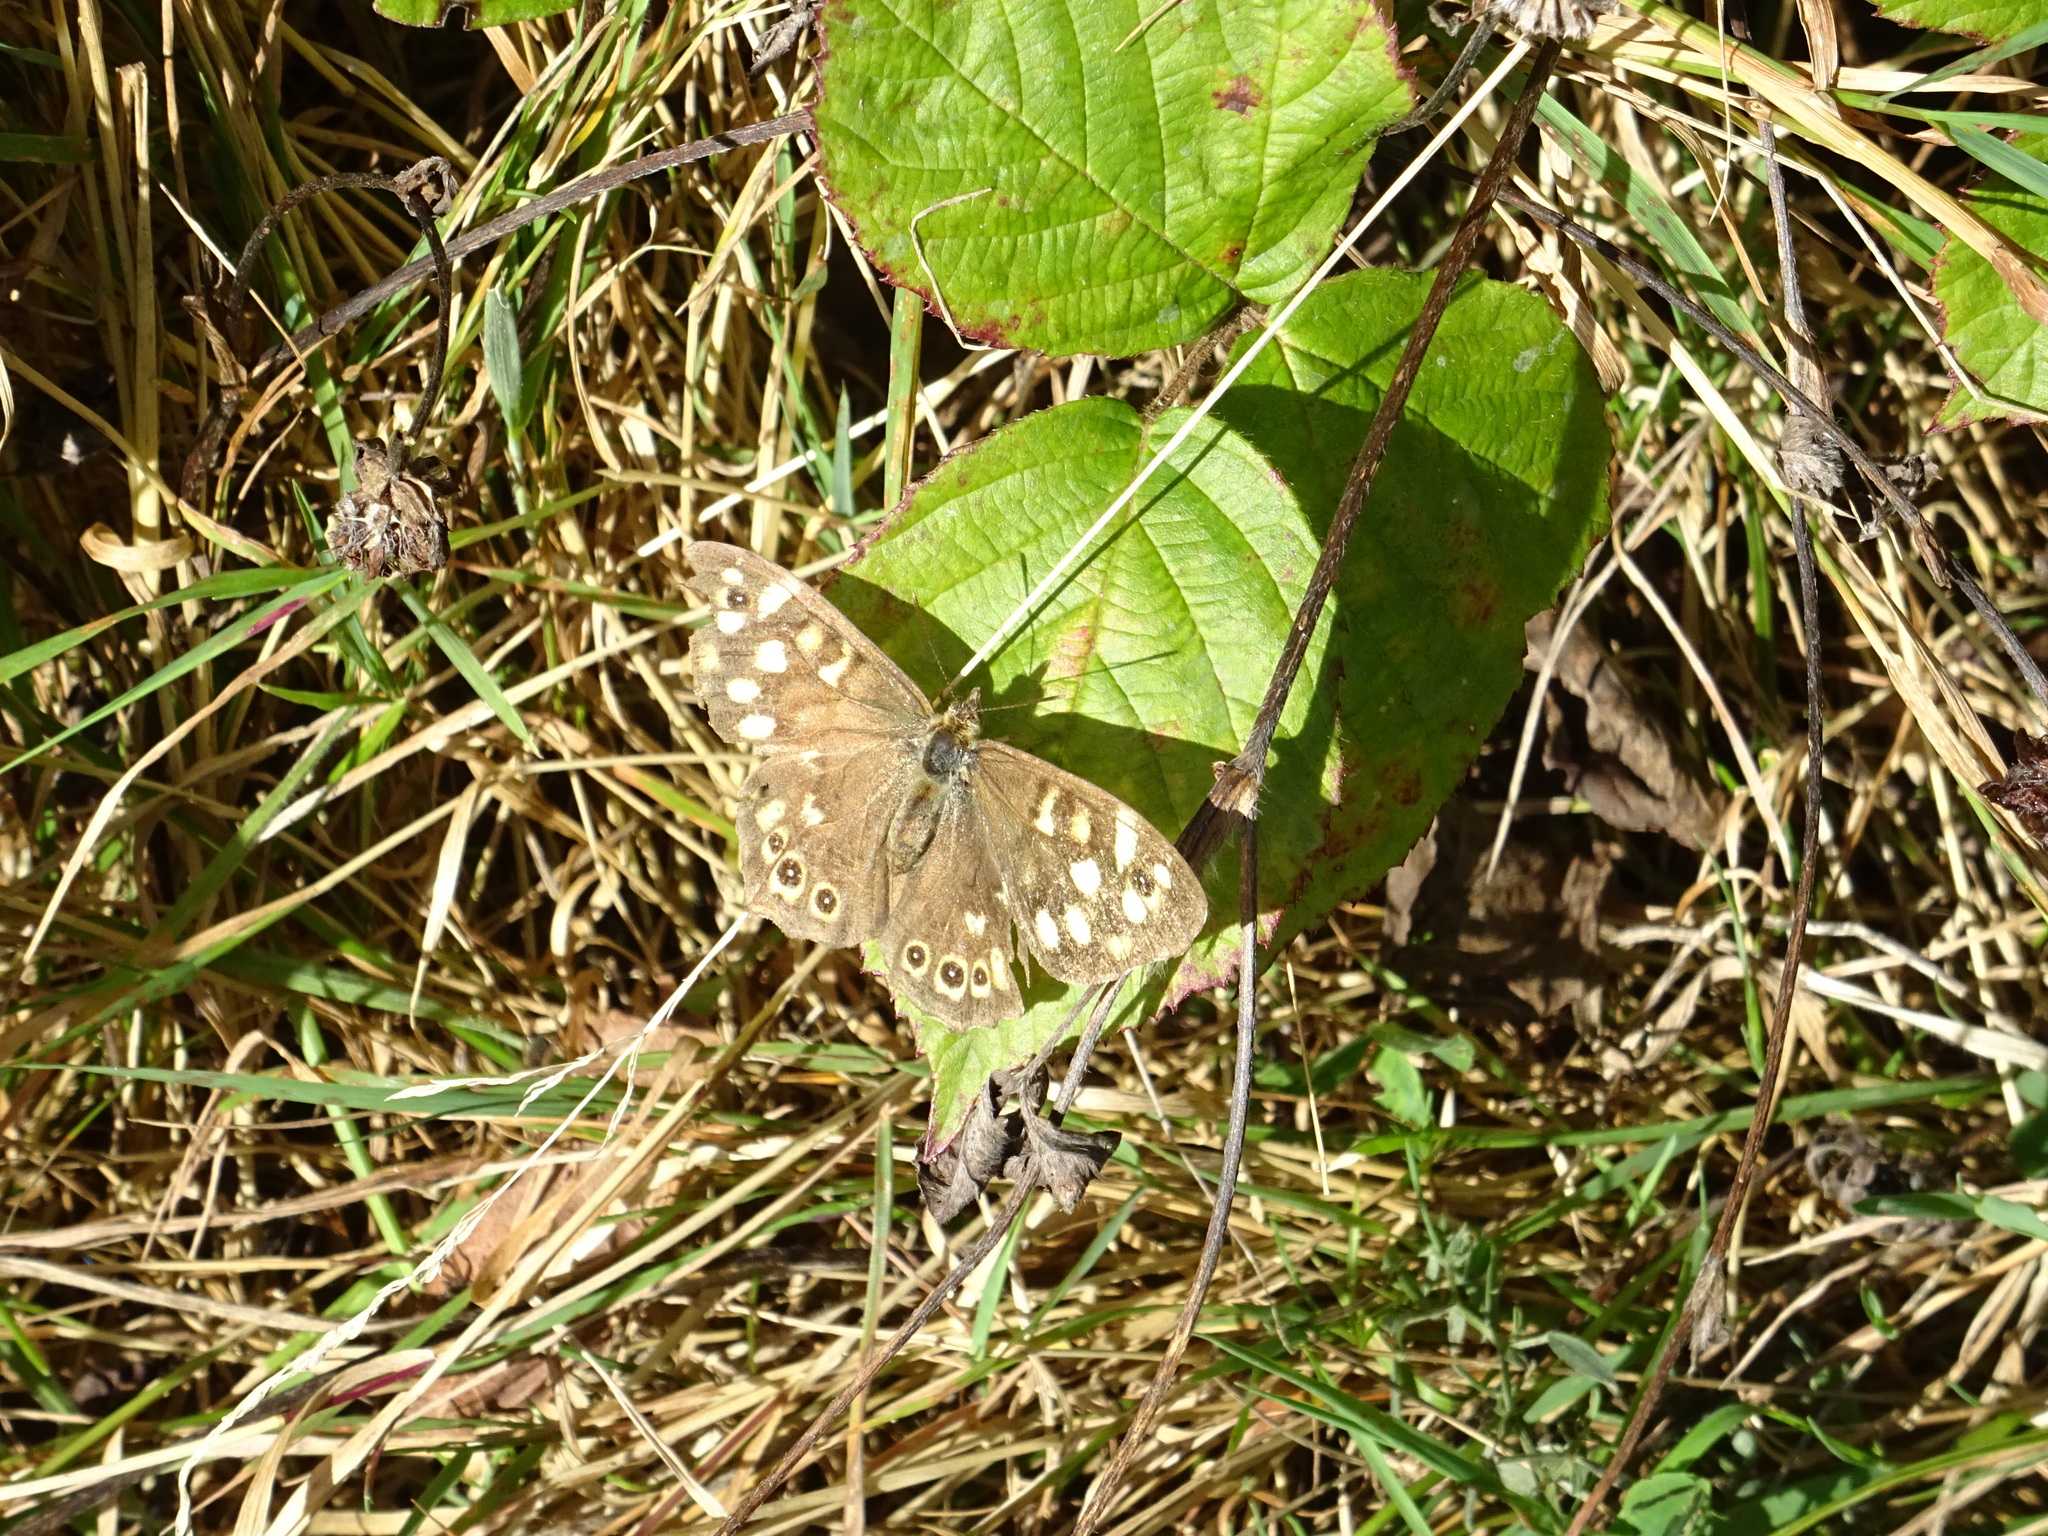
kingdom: Animalia
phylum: Arthropoda
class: Insecta
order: Lepidoptera
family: Nymphalidae
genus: Pararge
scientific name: Pararge aegeria
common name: Speckled wood
